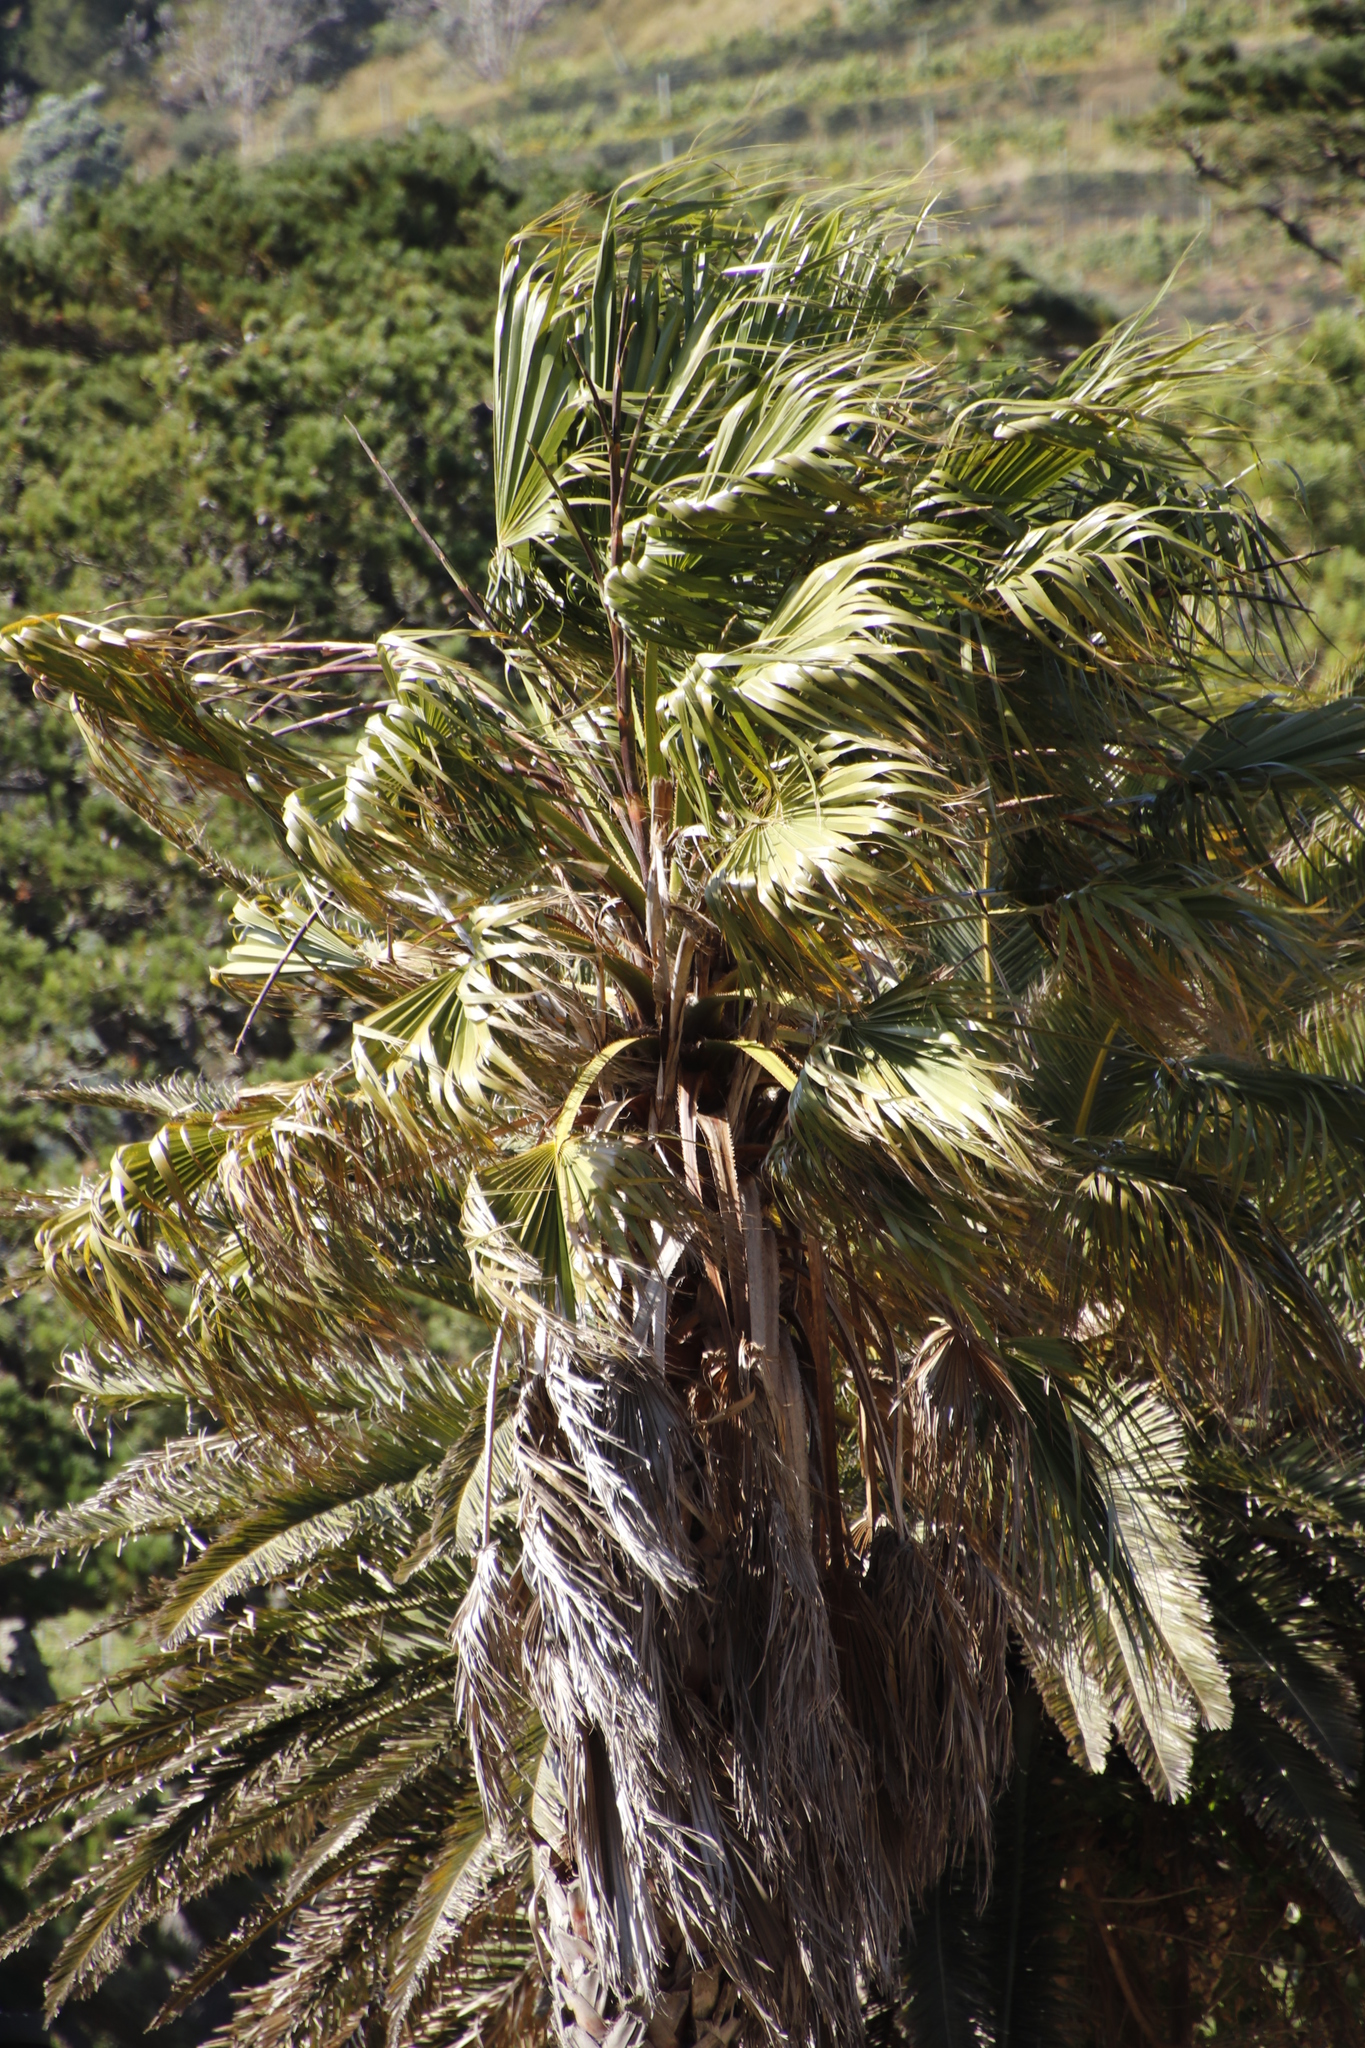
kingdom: Plantae
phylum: Tracheophyta
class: Liliopsida
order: Arecales
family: Arecaceae
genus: Washingtonia
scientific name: Washingtonia robusta
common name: Mexican fan palm
